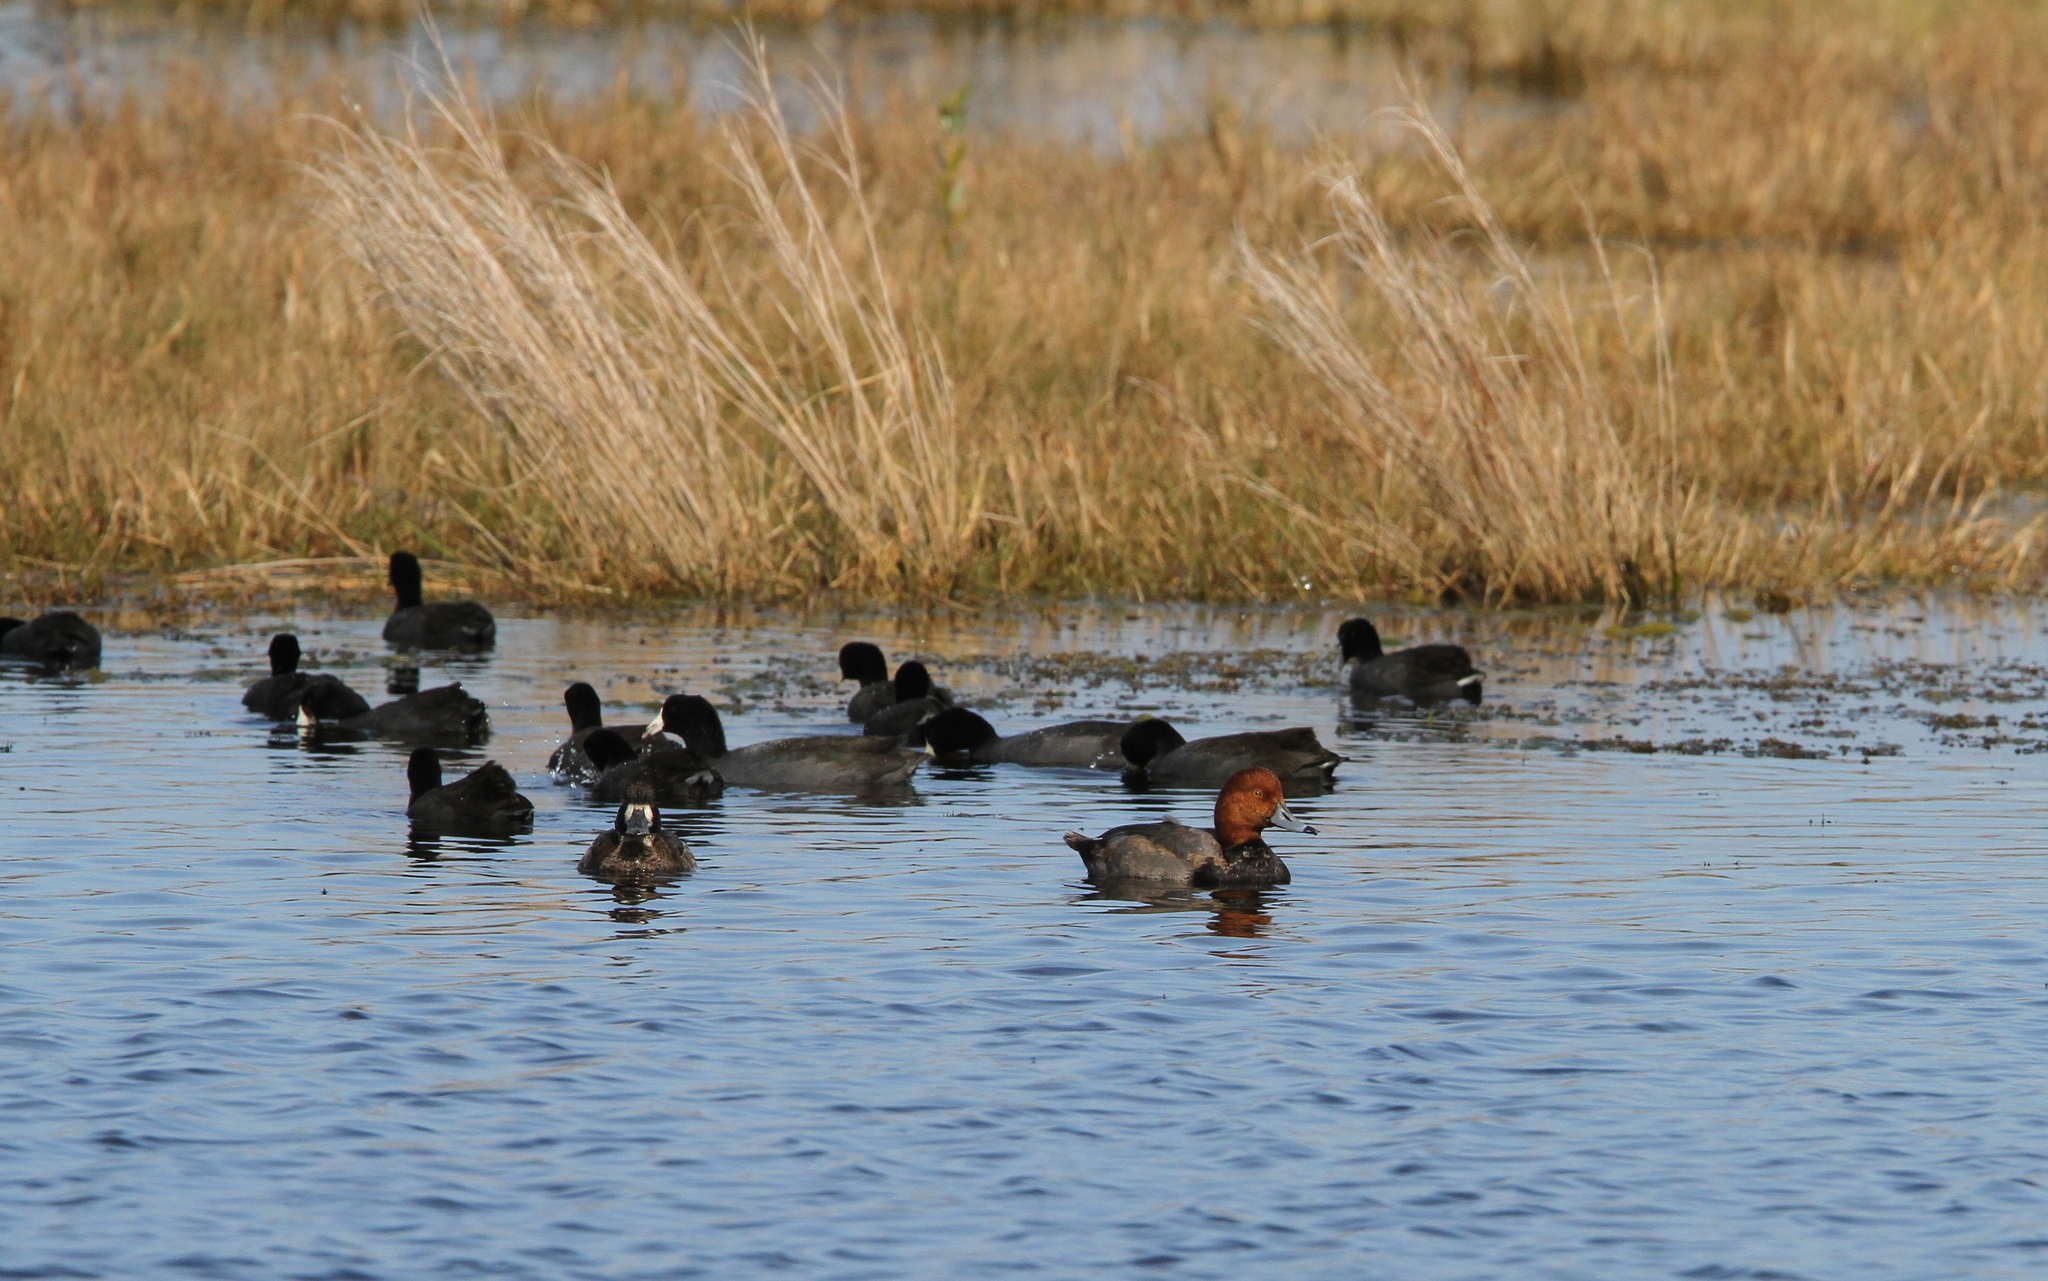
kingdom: Animalia
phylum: Chordata
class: Aves
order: Anseriformes
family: Anatidae
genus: Aythya
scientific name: Aythya americana
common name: Redhead
